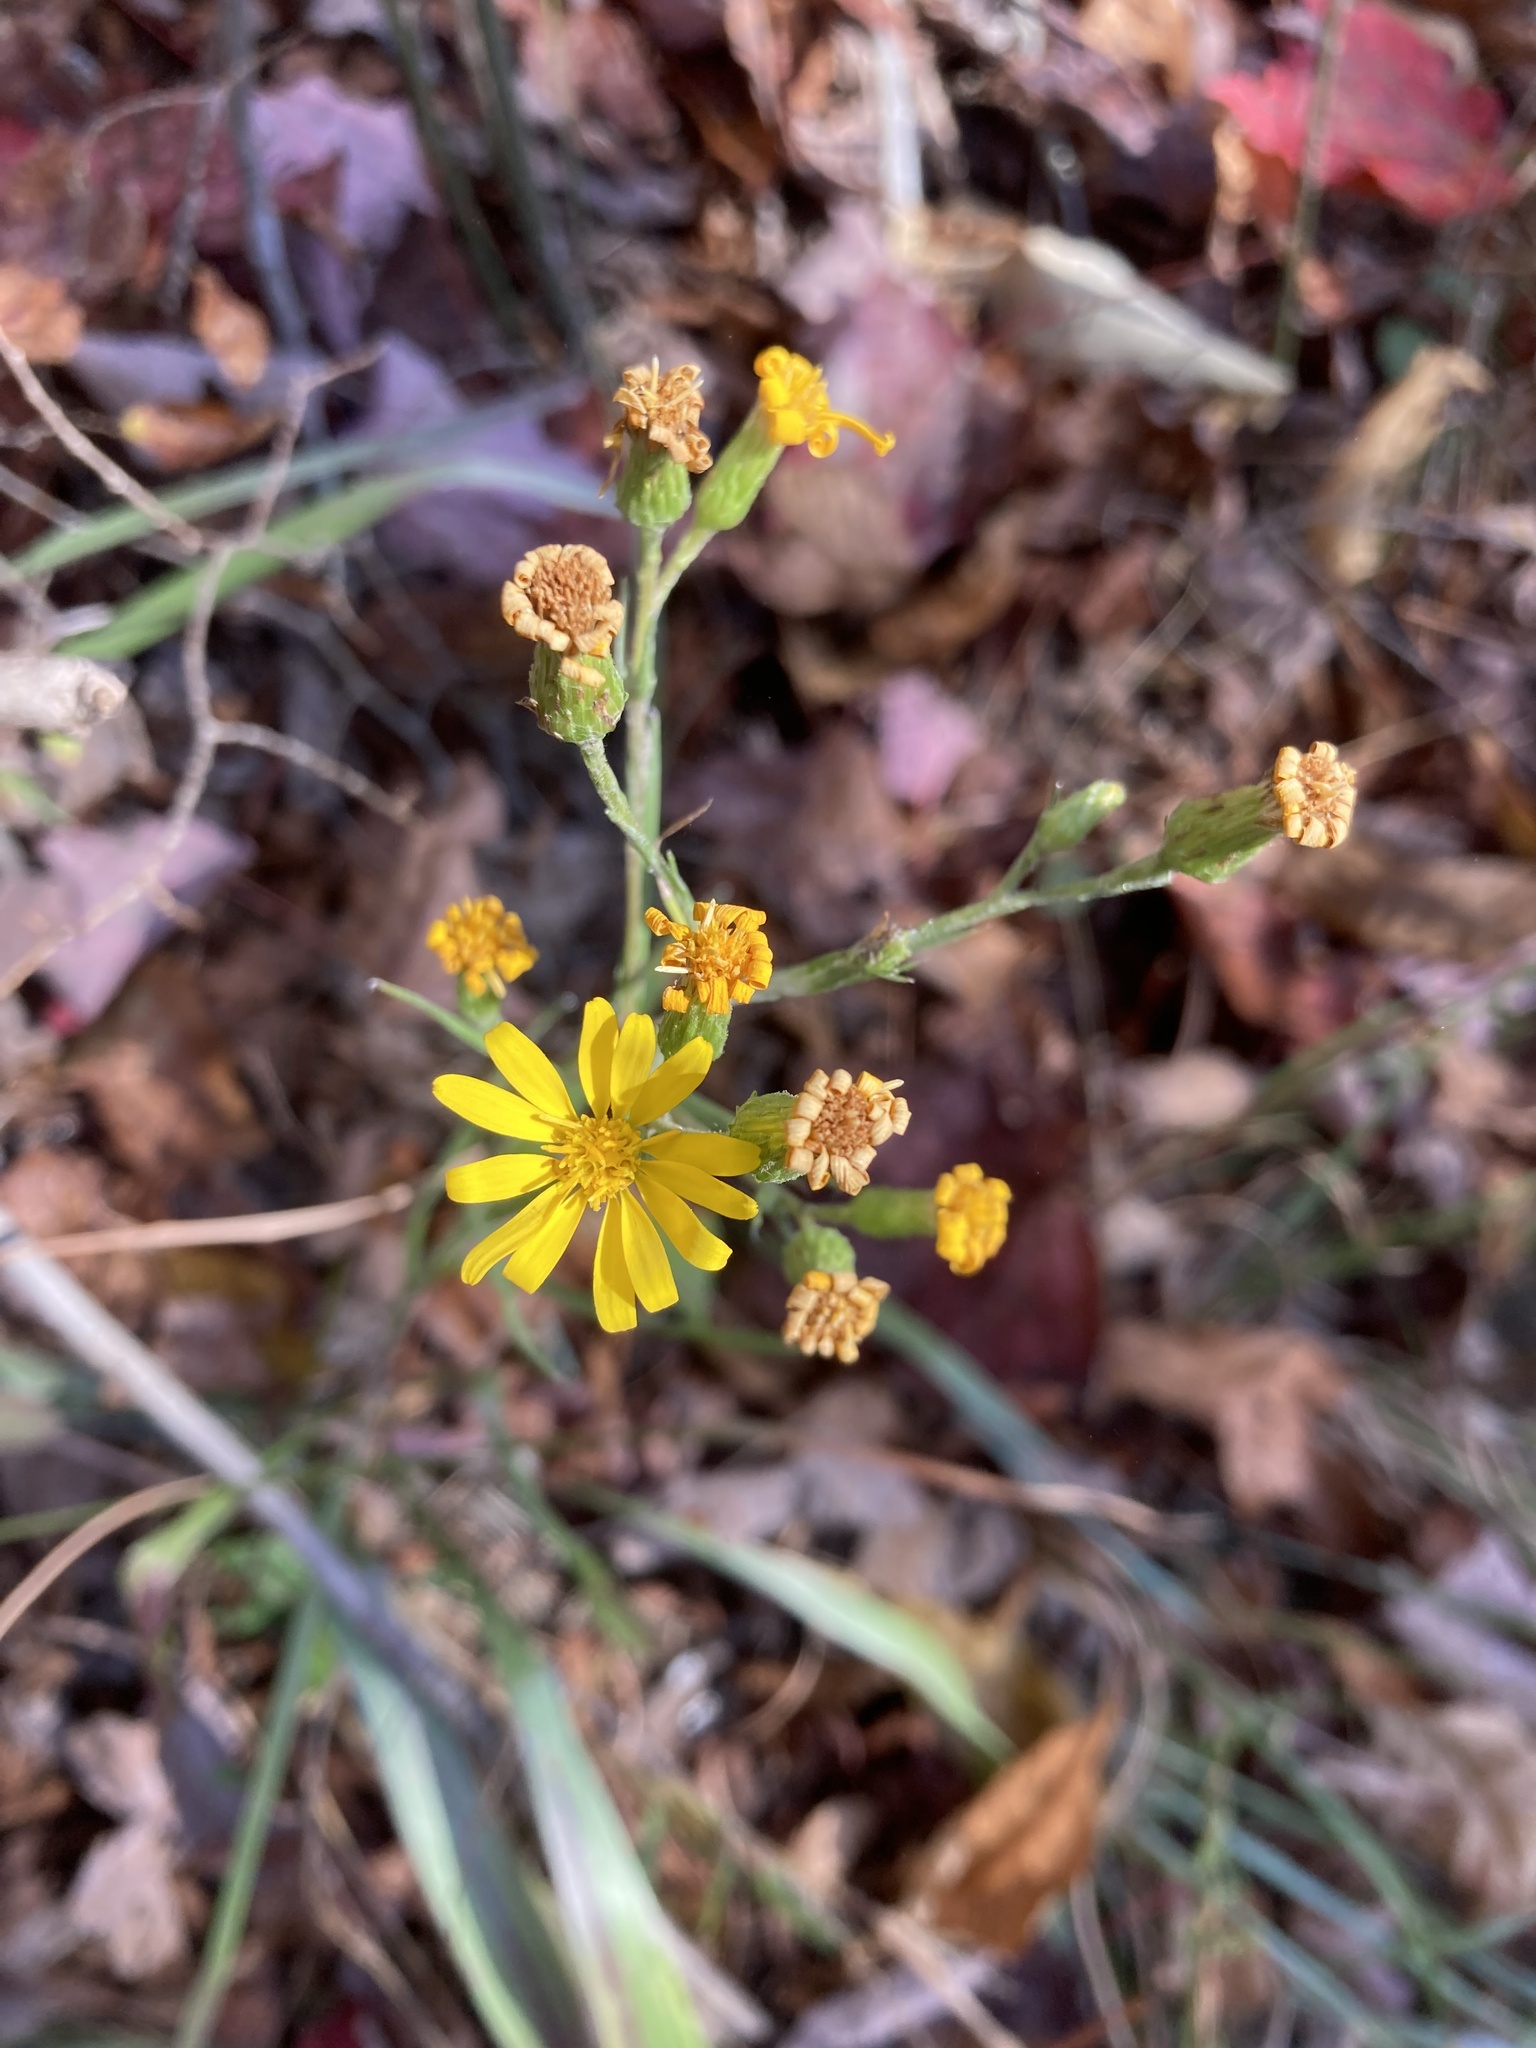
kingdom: Plantae
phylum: Tracheophyta
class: Magnoliopsida
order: Asterales
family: Asteraceae
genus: Pityopsis
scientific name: Pityopsis graminifolia
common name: Grass-leaf golden-aster
